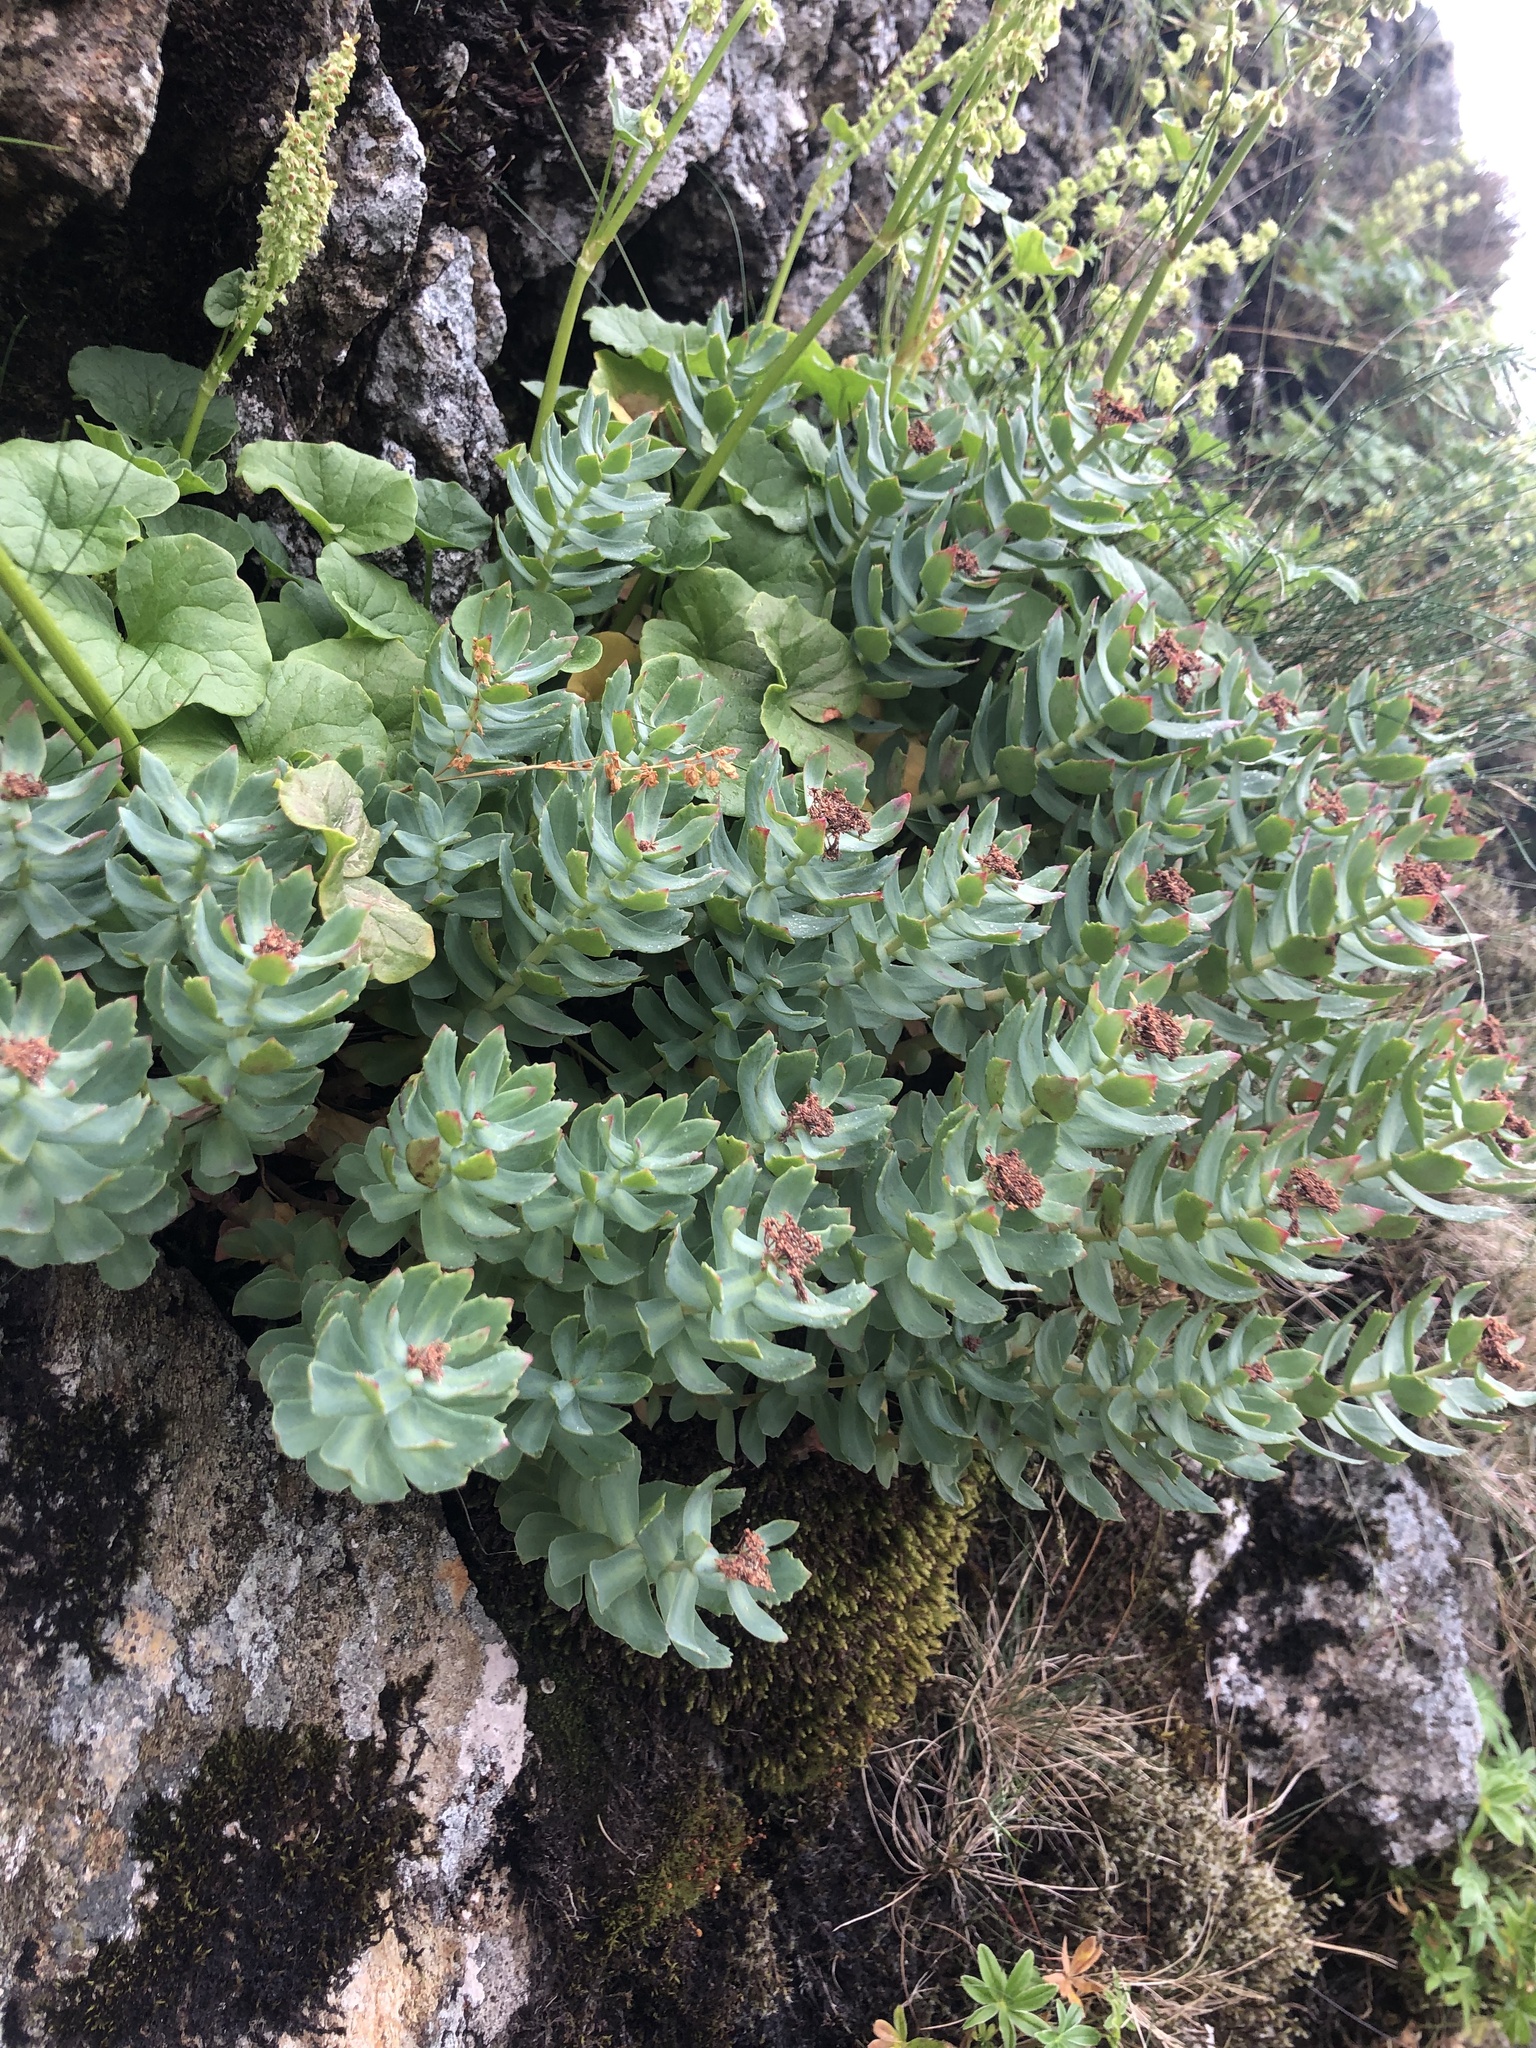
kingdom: Plantae
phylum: Tracheophyta
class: Magnoliopsida
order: Saxifragales
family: Crassulaceae
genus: Rhodiola
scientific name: Rhodiola rosea
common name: Roseroot
